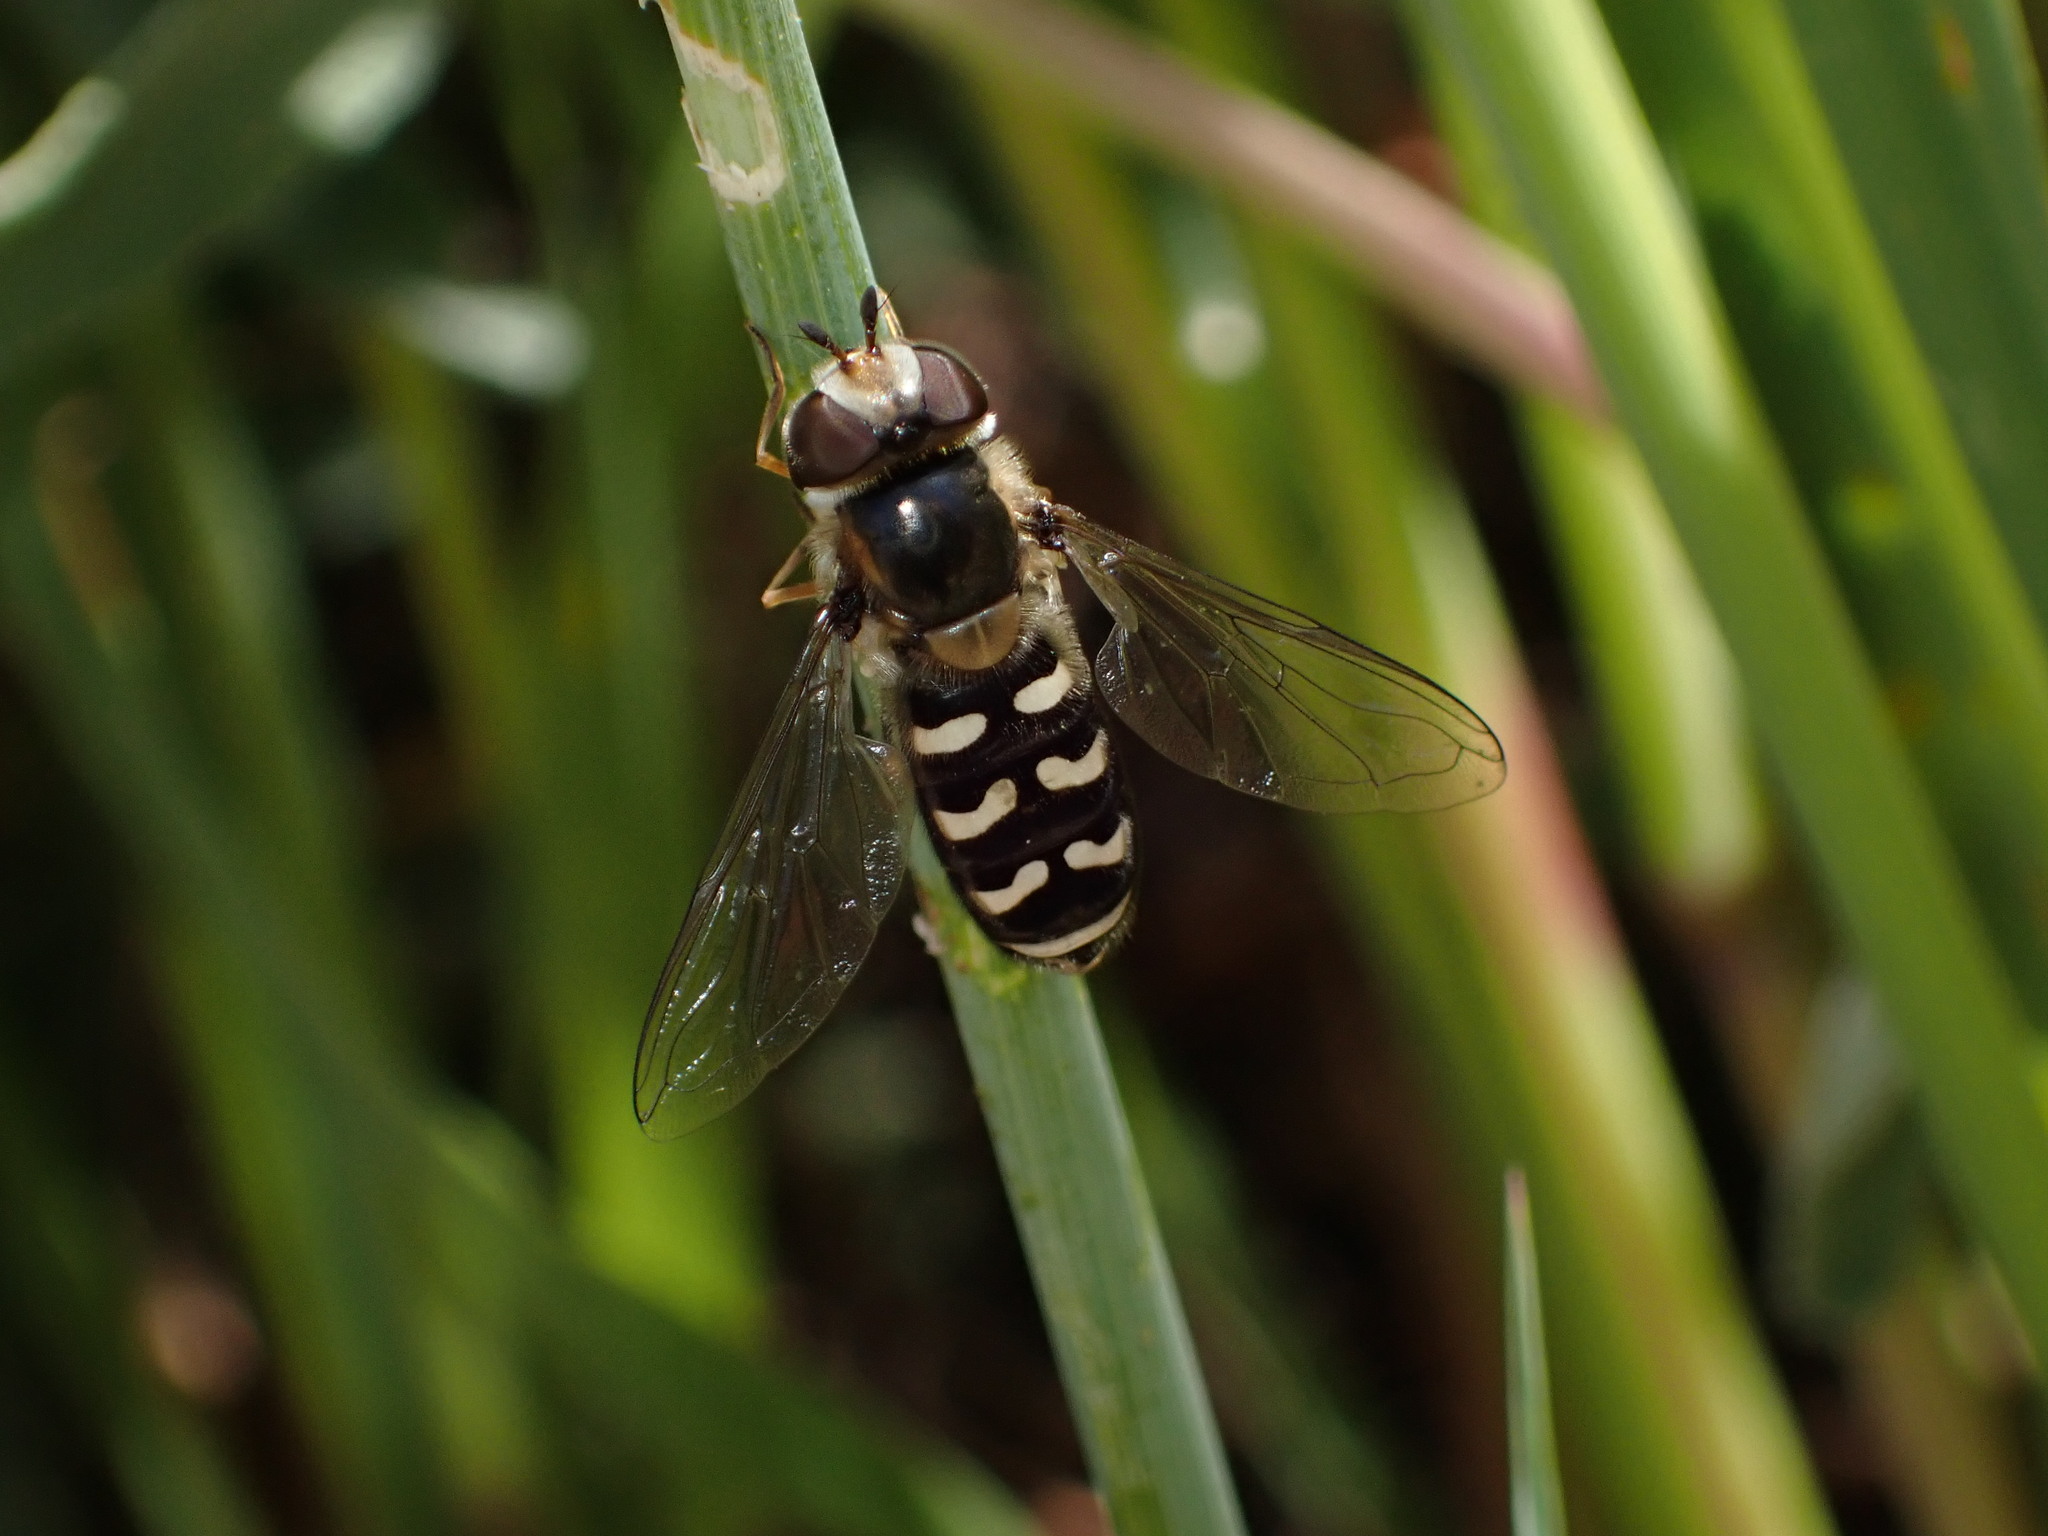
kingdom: Animalia
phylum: Arthropoda
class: Insecta
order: Diptera
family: Syrphidae
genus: Scaeva
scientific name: Scaeva affinis
